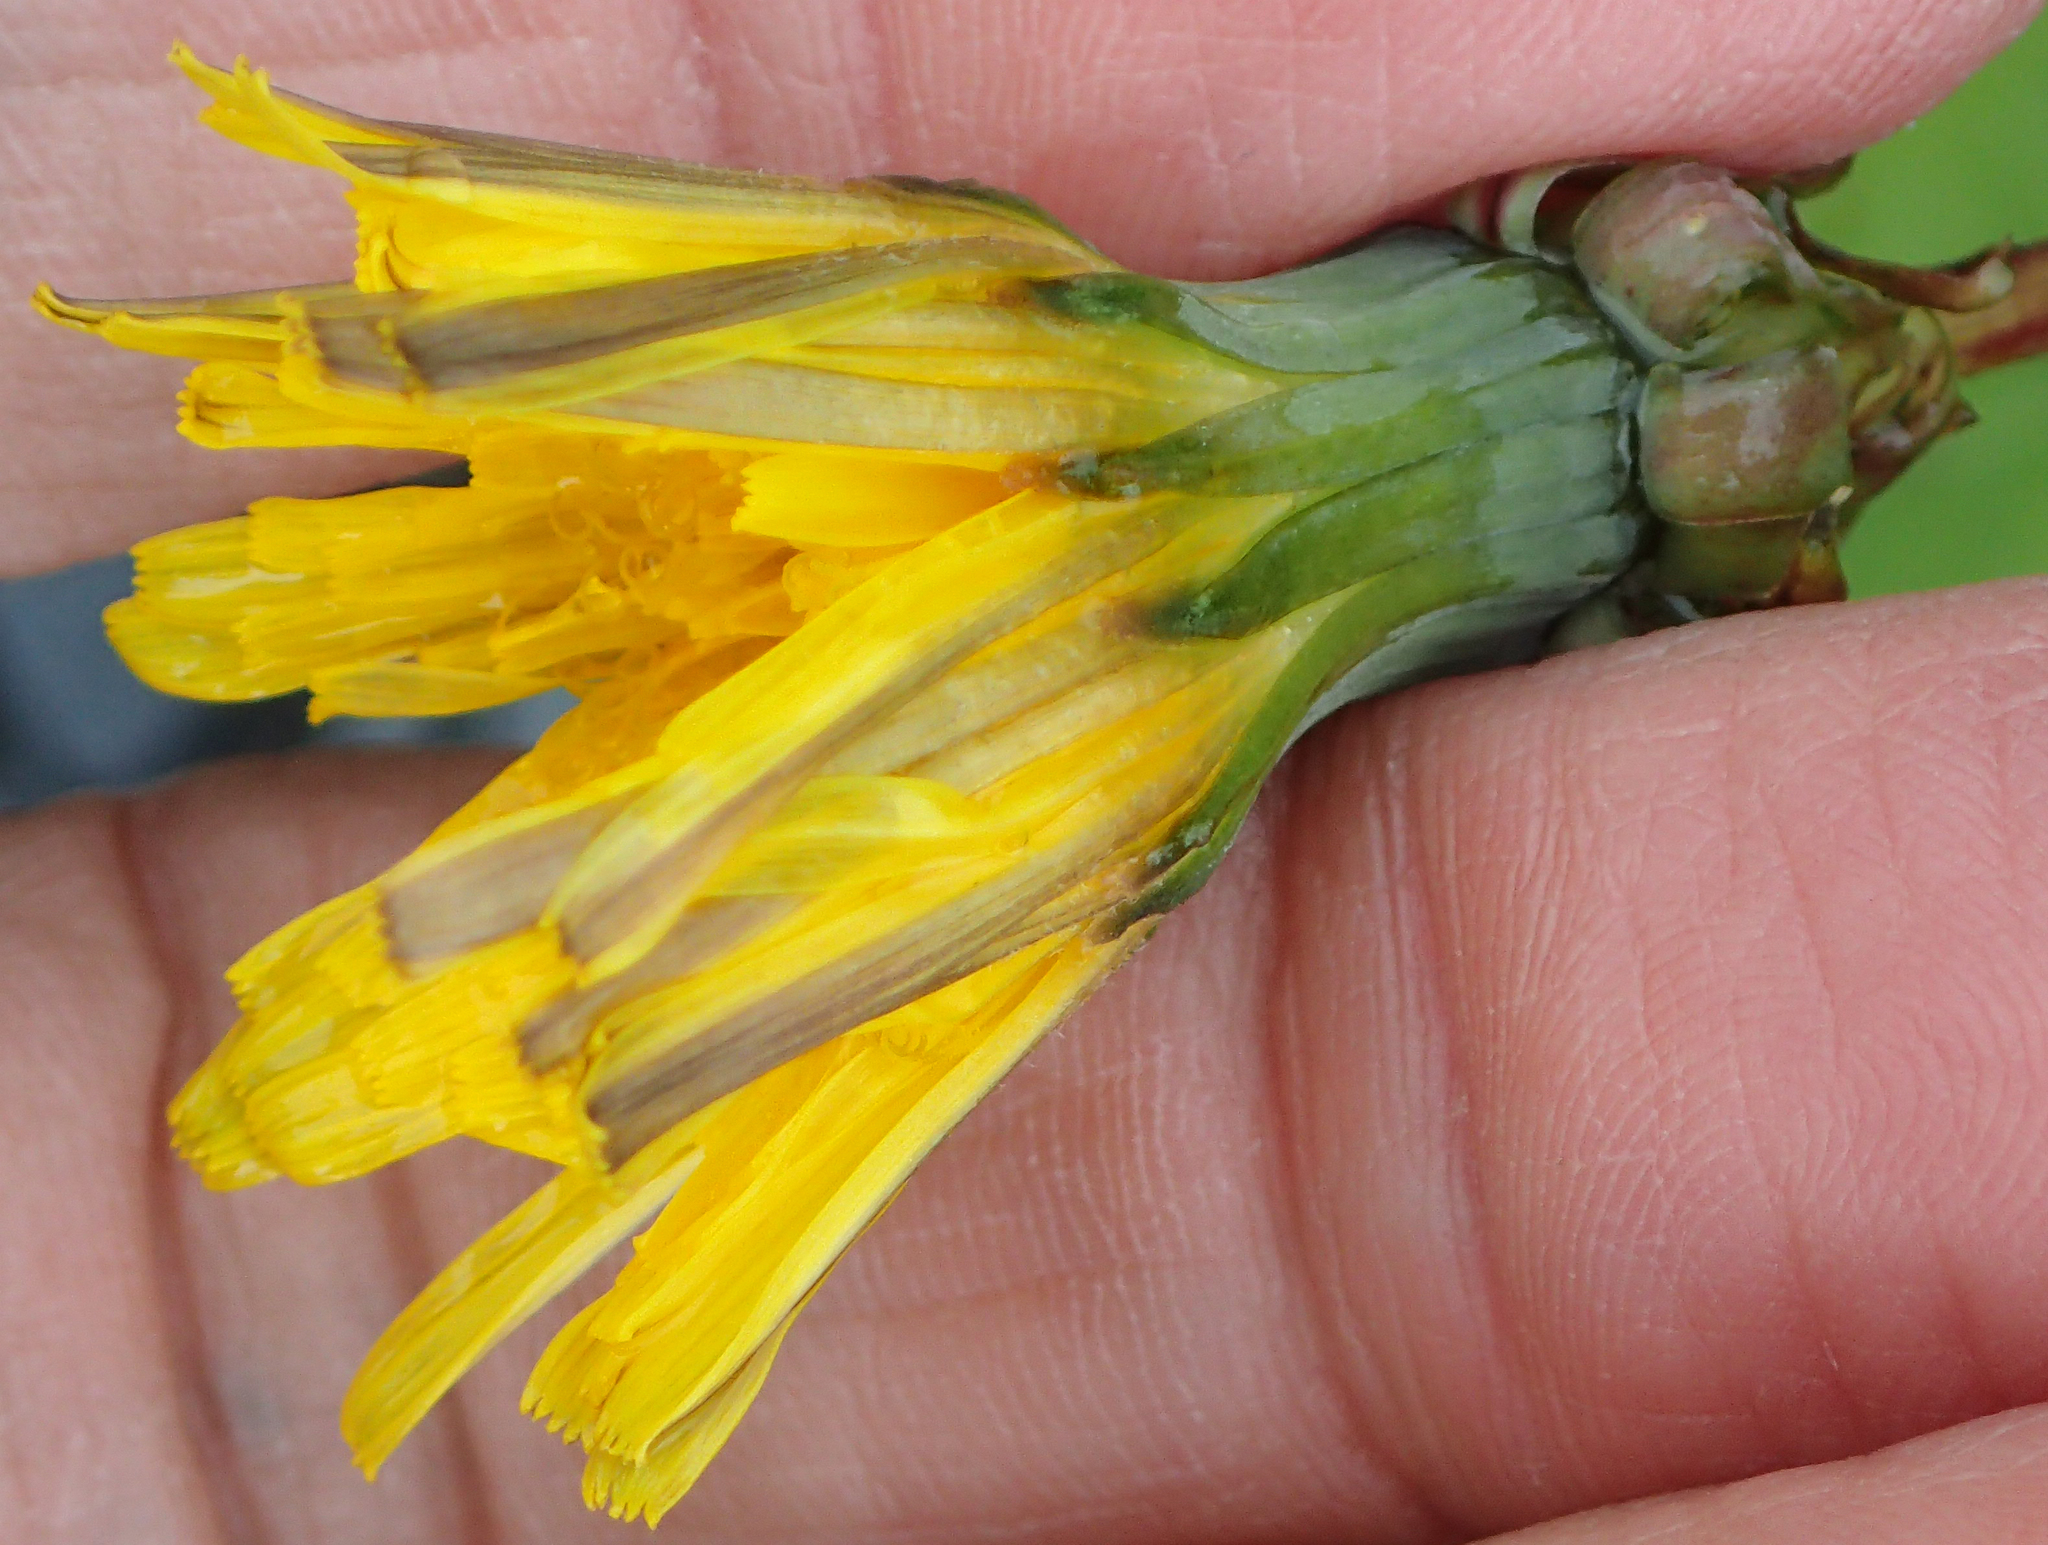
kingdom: Plantae
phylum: Tracheophyta
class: Magnoliopsida
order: Asterales
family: Asteraceae
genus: Taraxacum
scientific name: Taraxacum officinale
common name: Common dandelion
